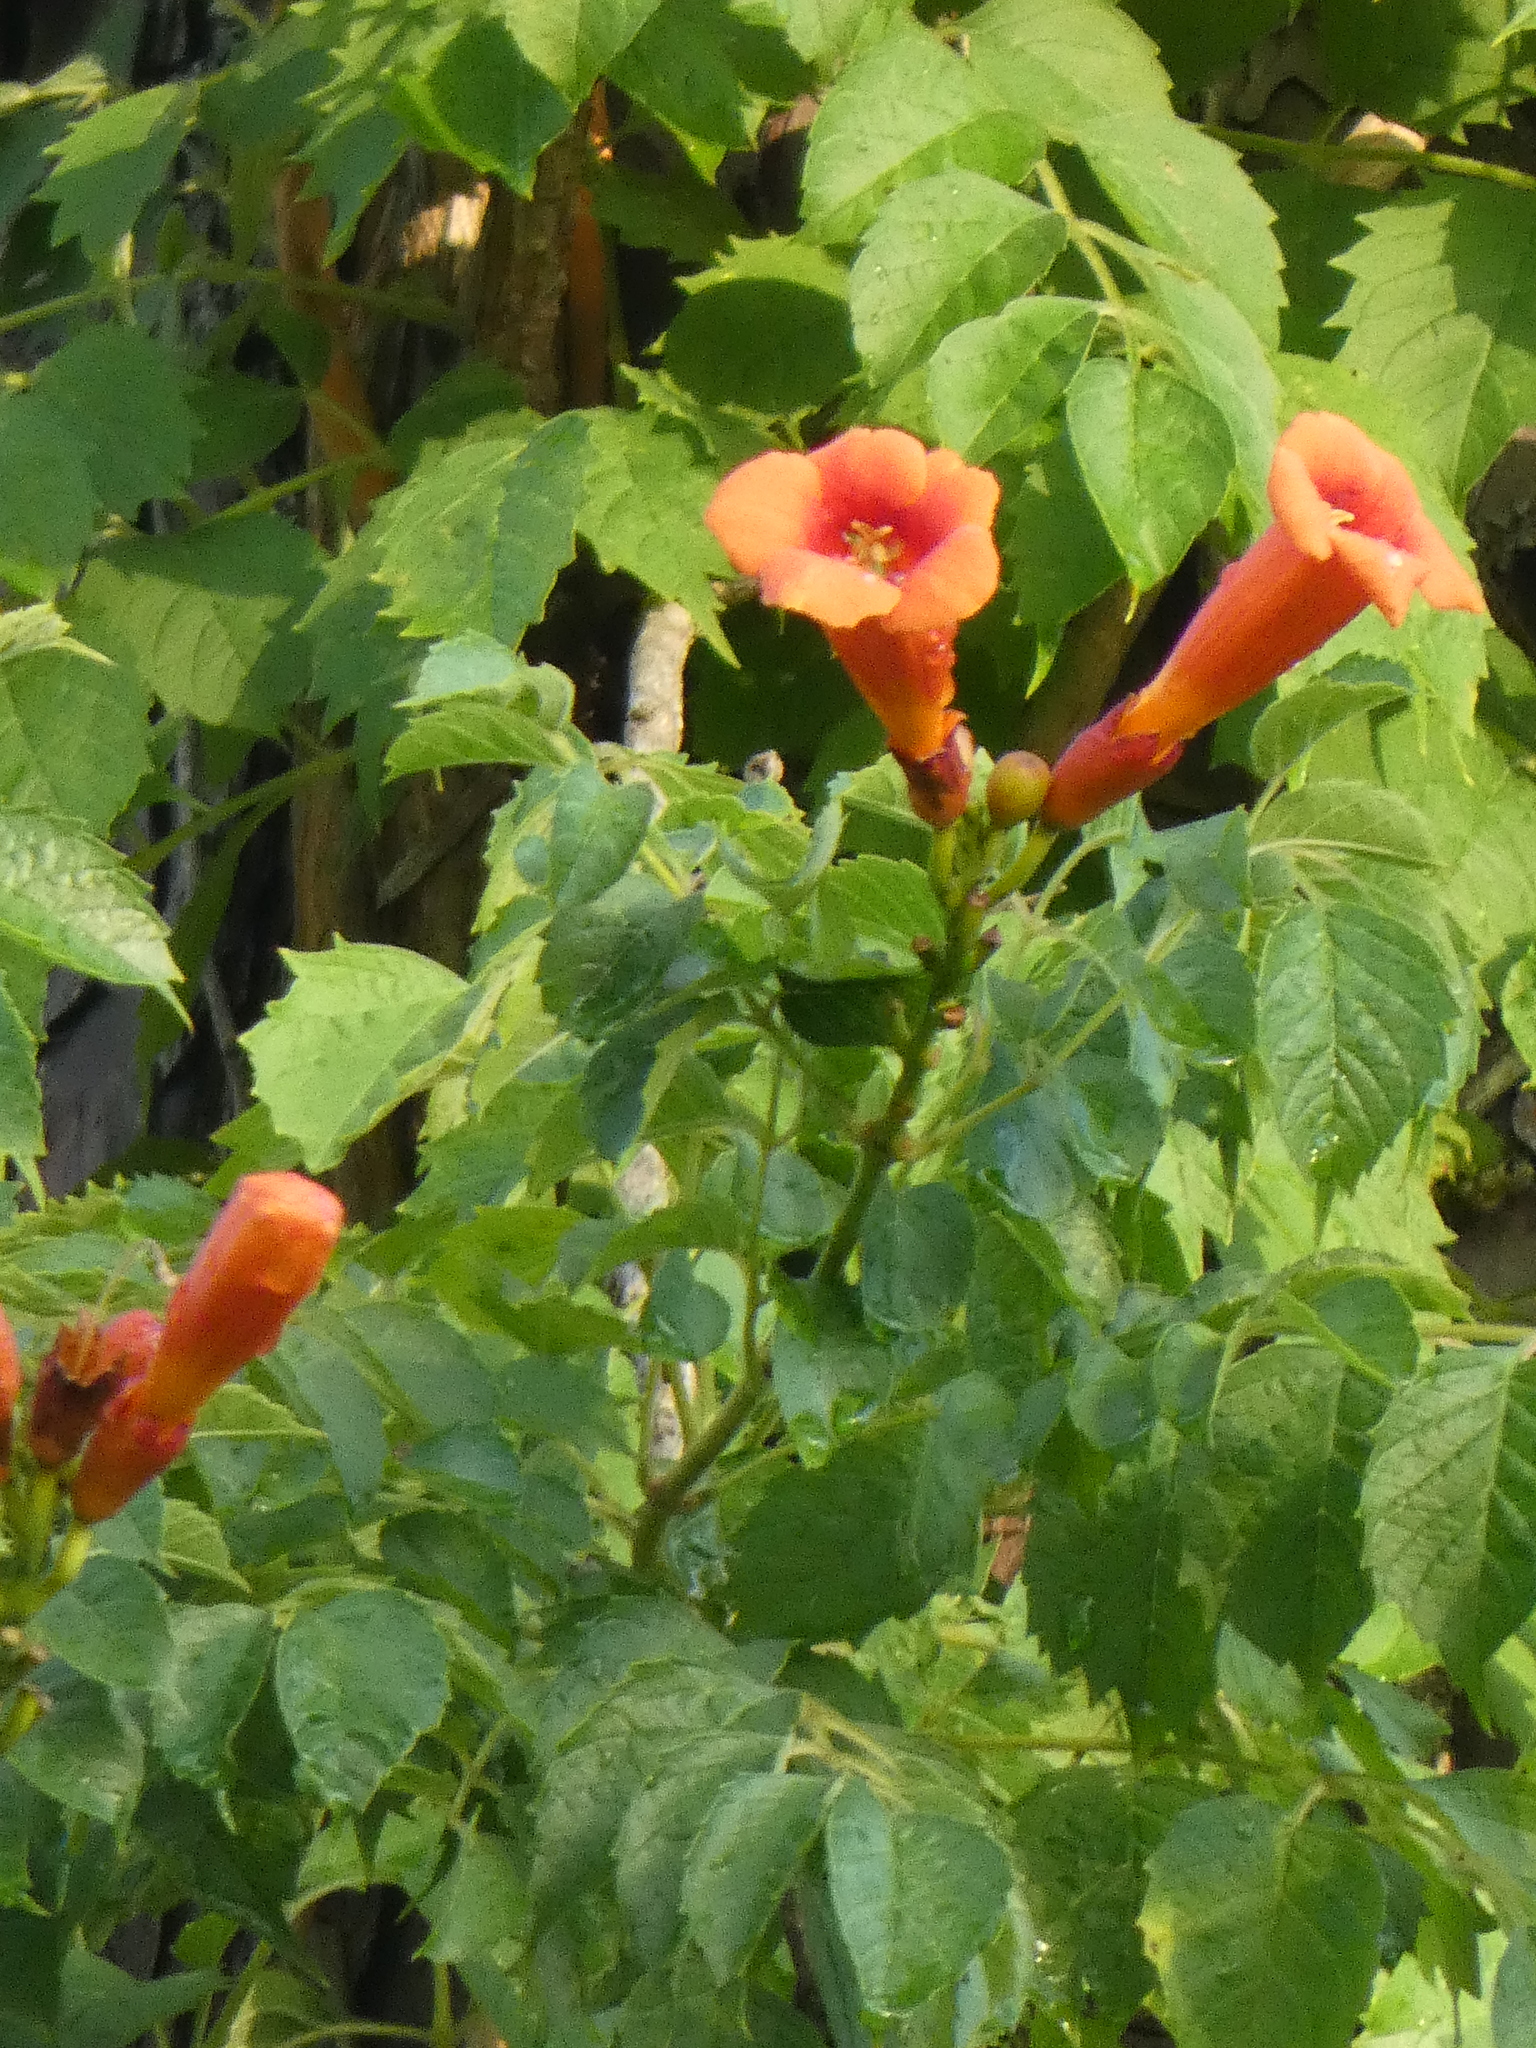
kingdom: Plantae
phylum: Tracheophyta
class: Magnoliopsida
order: Lamiales
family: Bignoniaceae
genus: Campsis
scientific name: Campsis radicans
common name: Trumpet-creeper
